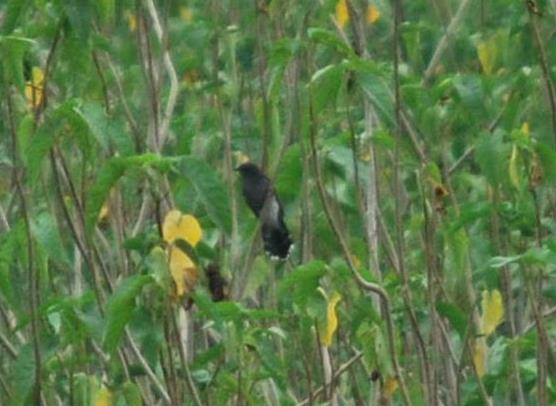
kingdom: Animalia
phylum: Chordata
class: Aves
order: Cuculiformes
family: Cuculidae
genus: Cacomantis
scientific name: Cacomantis passerinus
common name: Grey-bellied cuckoo
